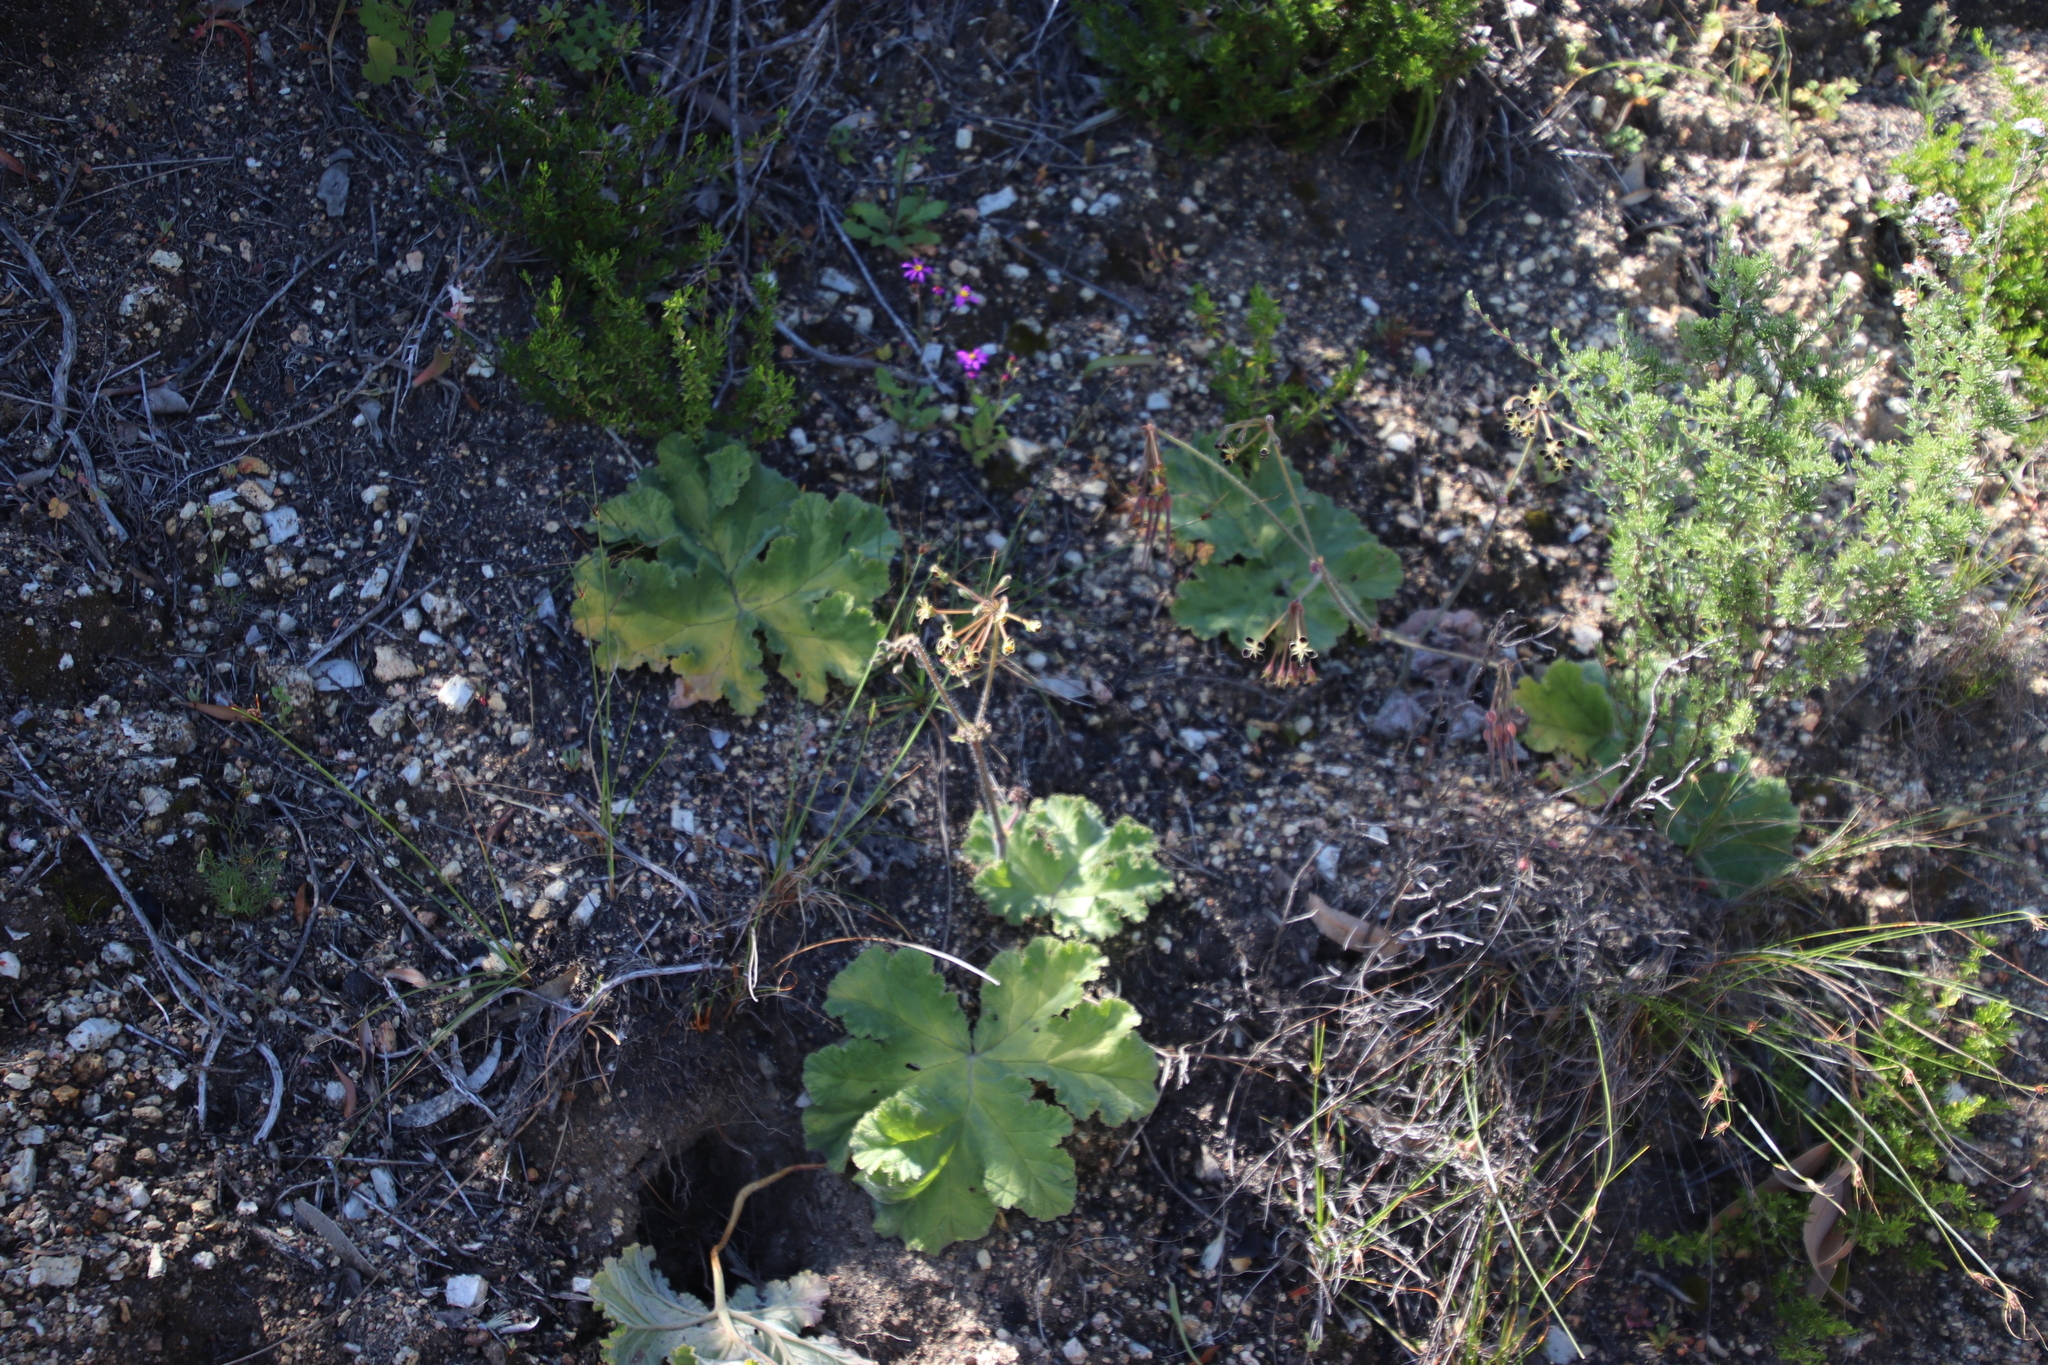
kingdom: Plantae
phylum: Tracheophyta
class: Magnoliopsida
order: Geraniales
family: Geraniaceae
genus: Pelargonium
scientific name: Pelargonium lobatum
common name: Vine-leaf pelargonium
